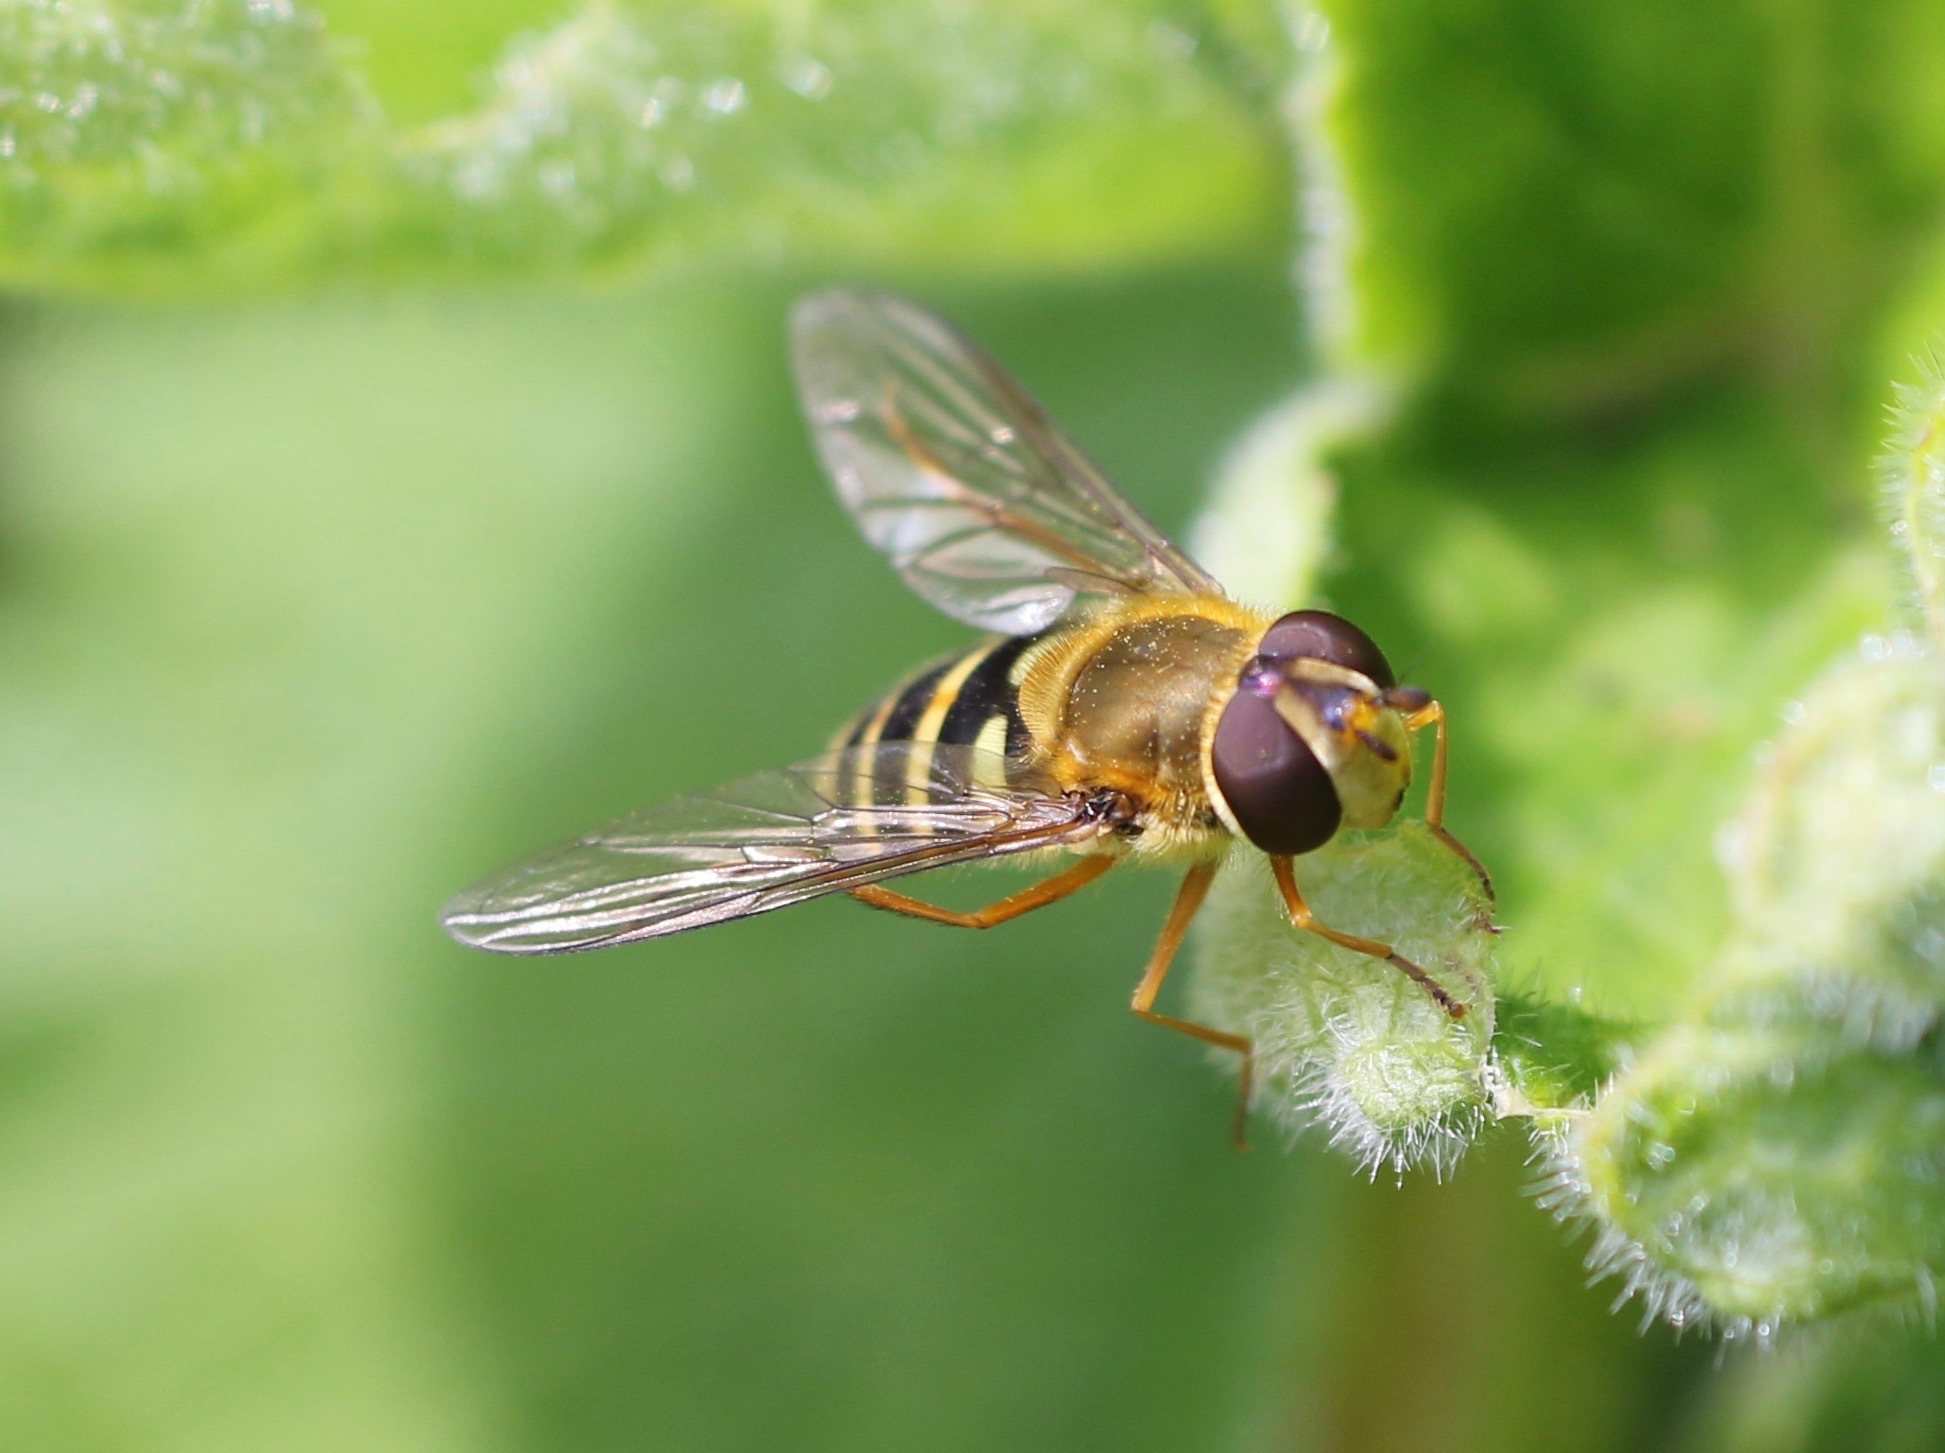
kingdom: Animalia
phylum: Arthropoda
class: Insecta
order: Diptera
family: Syrphidae
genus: Syrphus
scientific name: Syrphus ribesii
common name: Common flower fly
